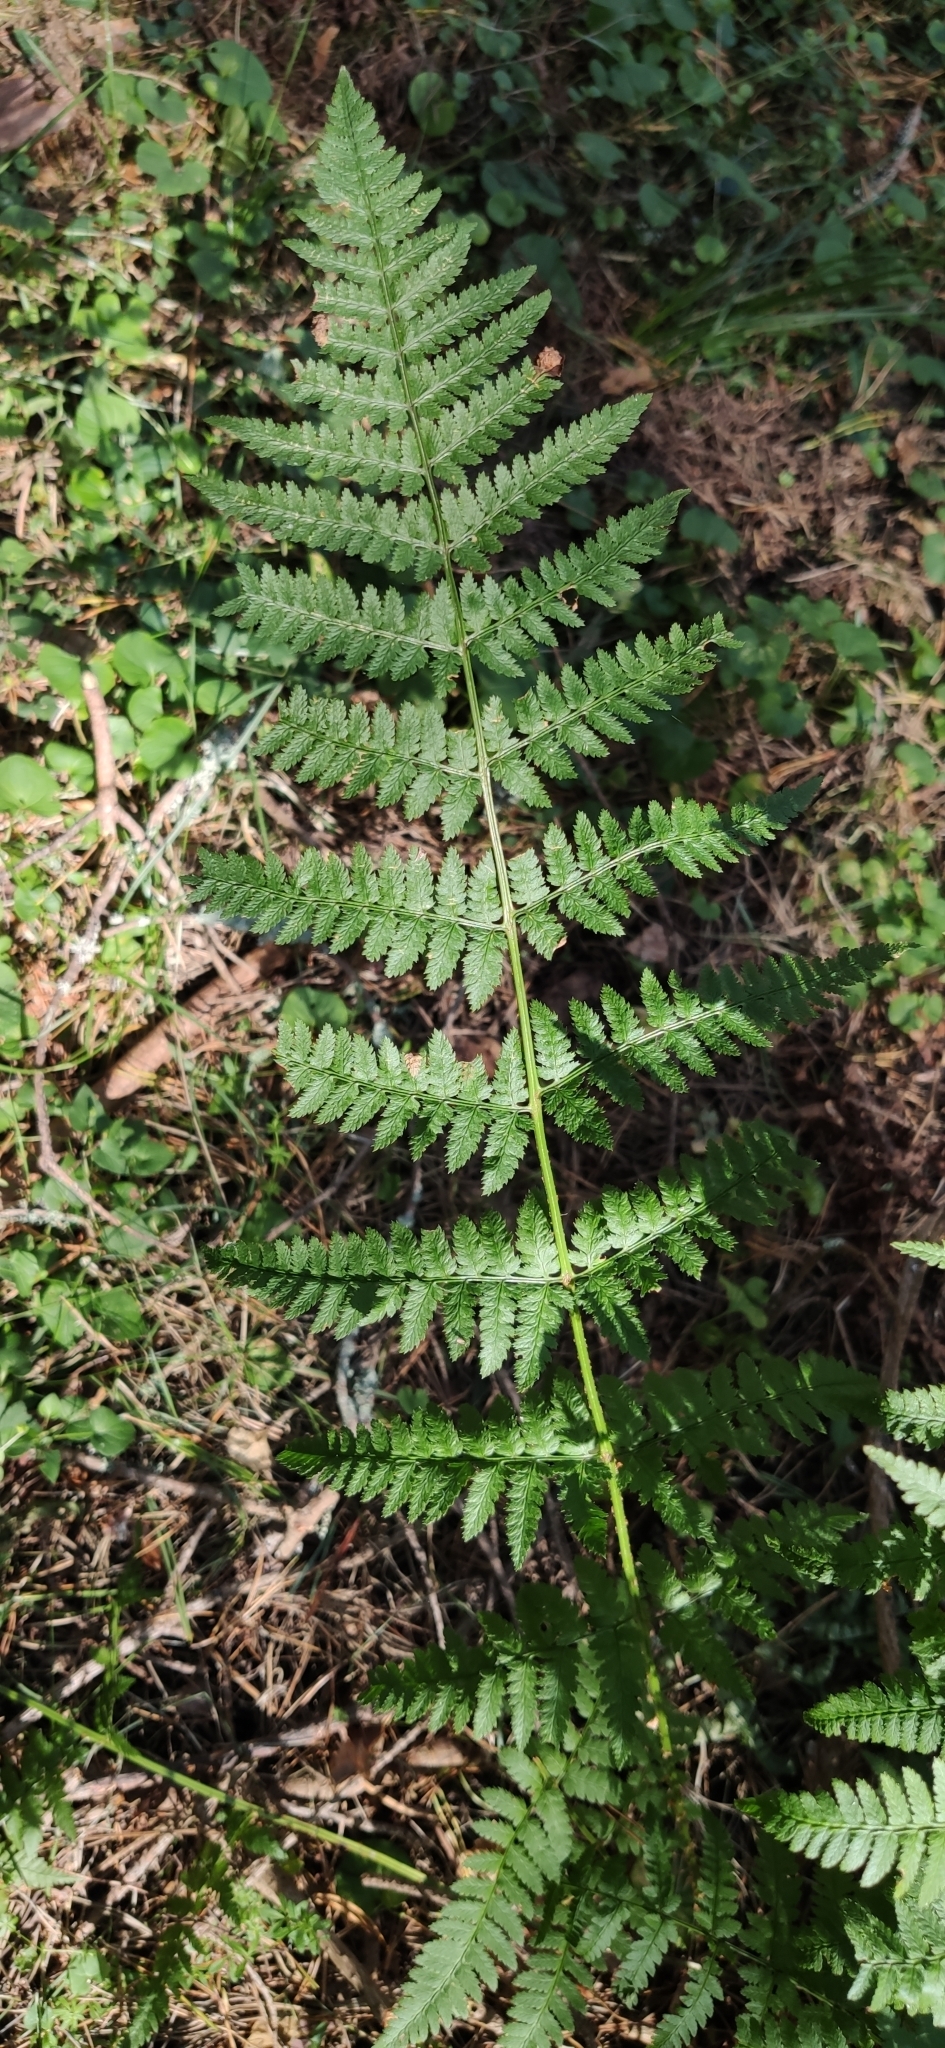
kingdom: Plantae
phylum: Tracheophyta
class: Polypodiopsida
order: Polypodiales
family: Dryopteridaceae
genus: Dryopteris
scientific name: Dryopteris carthusiana
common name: Narrow buckler-fern
